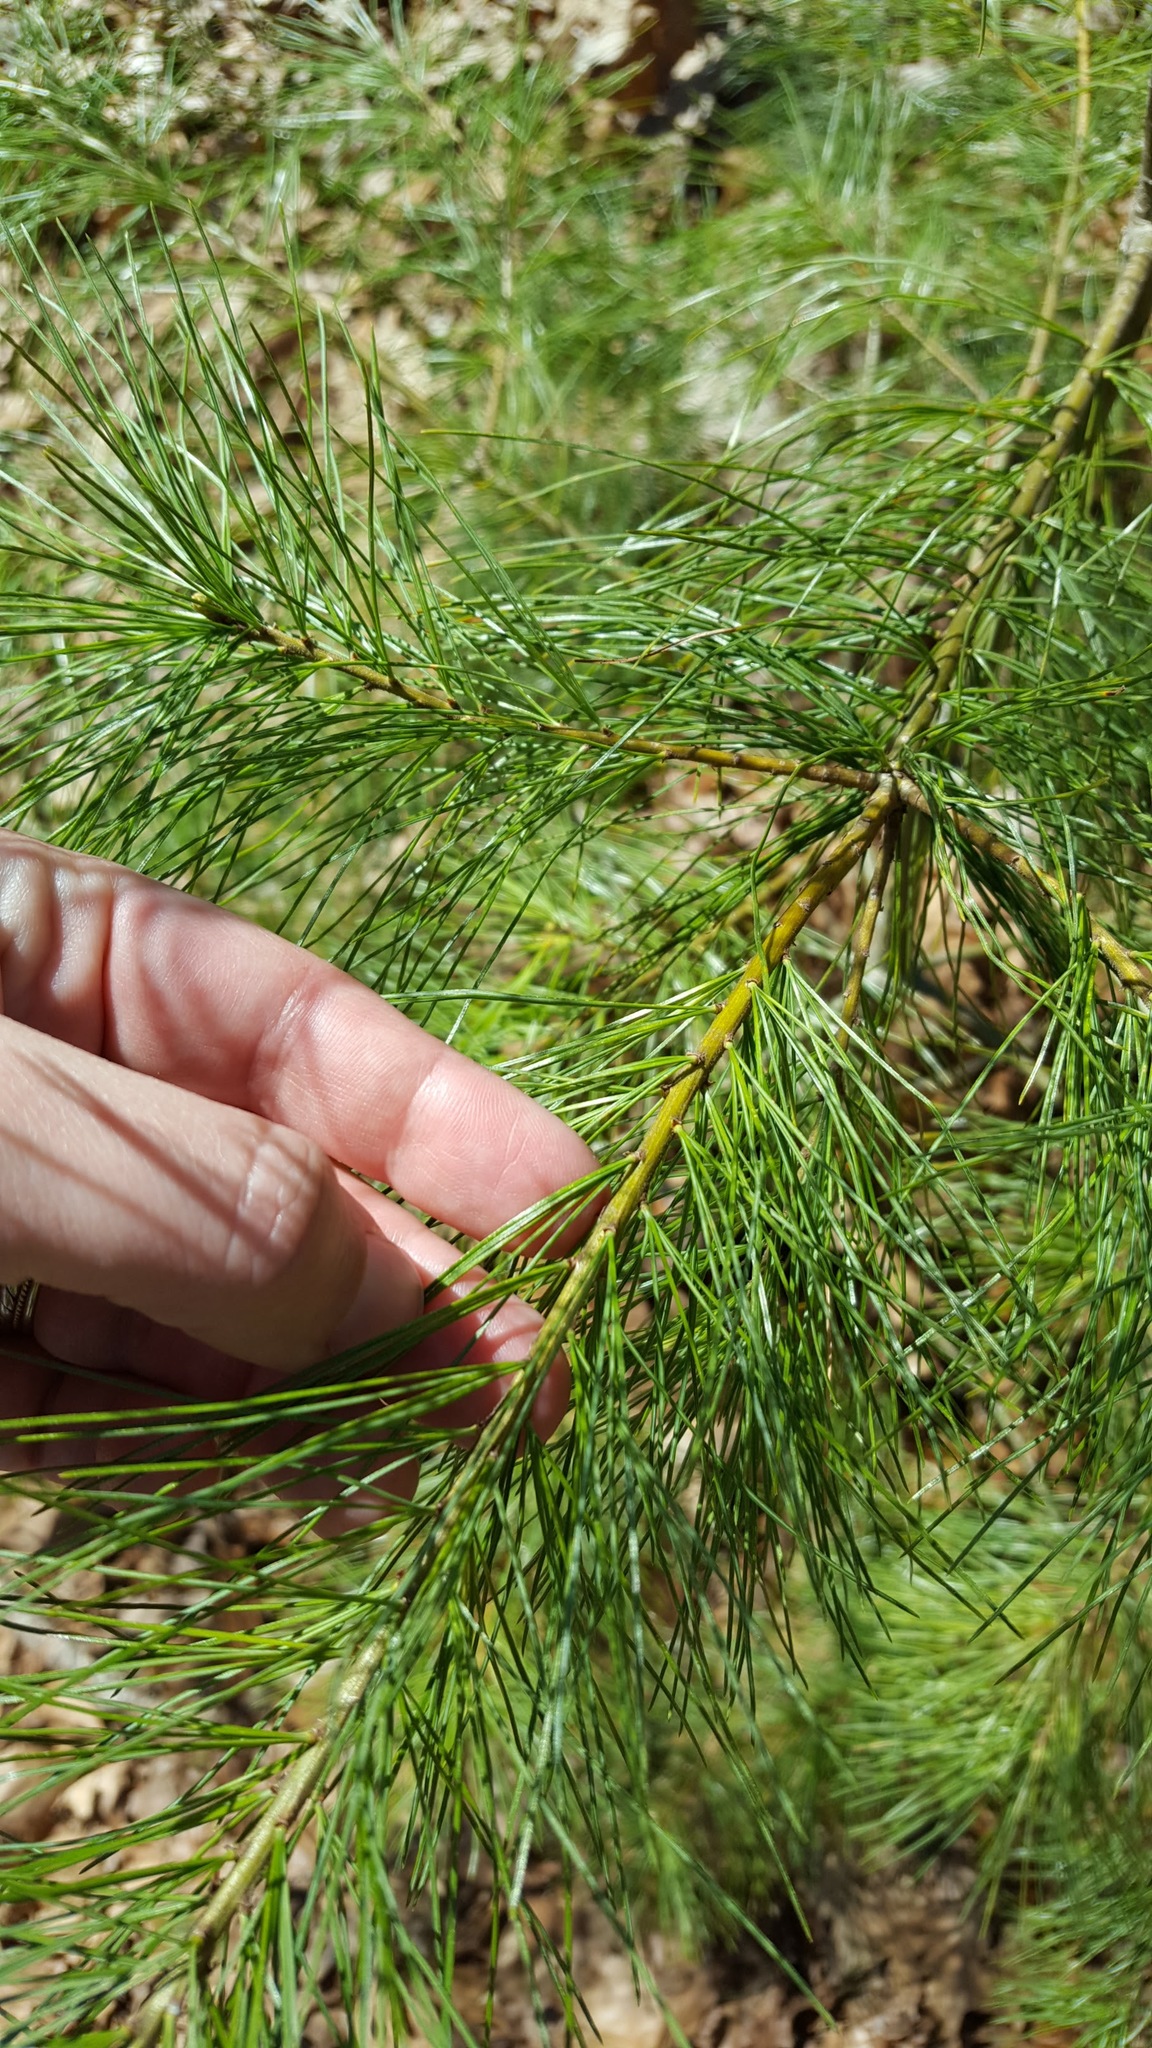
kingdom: Plantae
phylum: Tracheophyta
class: Pinopsida
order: Pinales
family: Pinaceae
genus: Pinus
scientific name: Pinus strobus
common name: Weymouth pine
